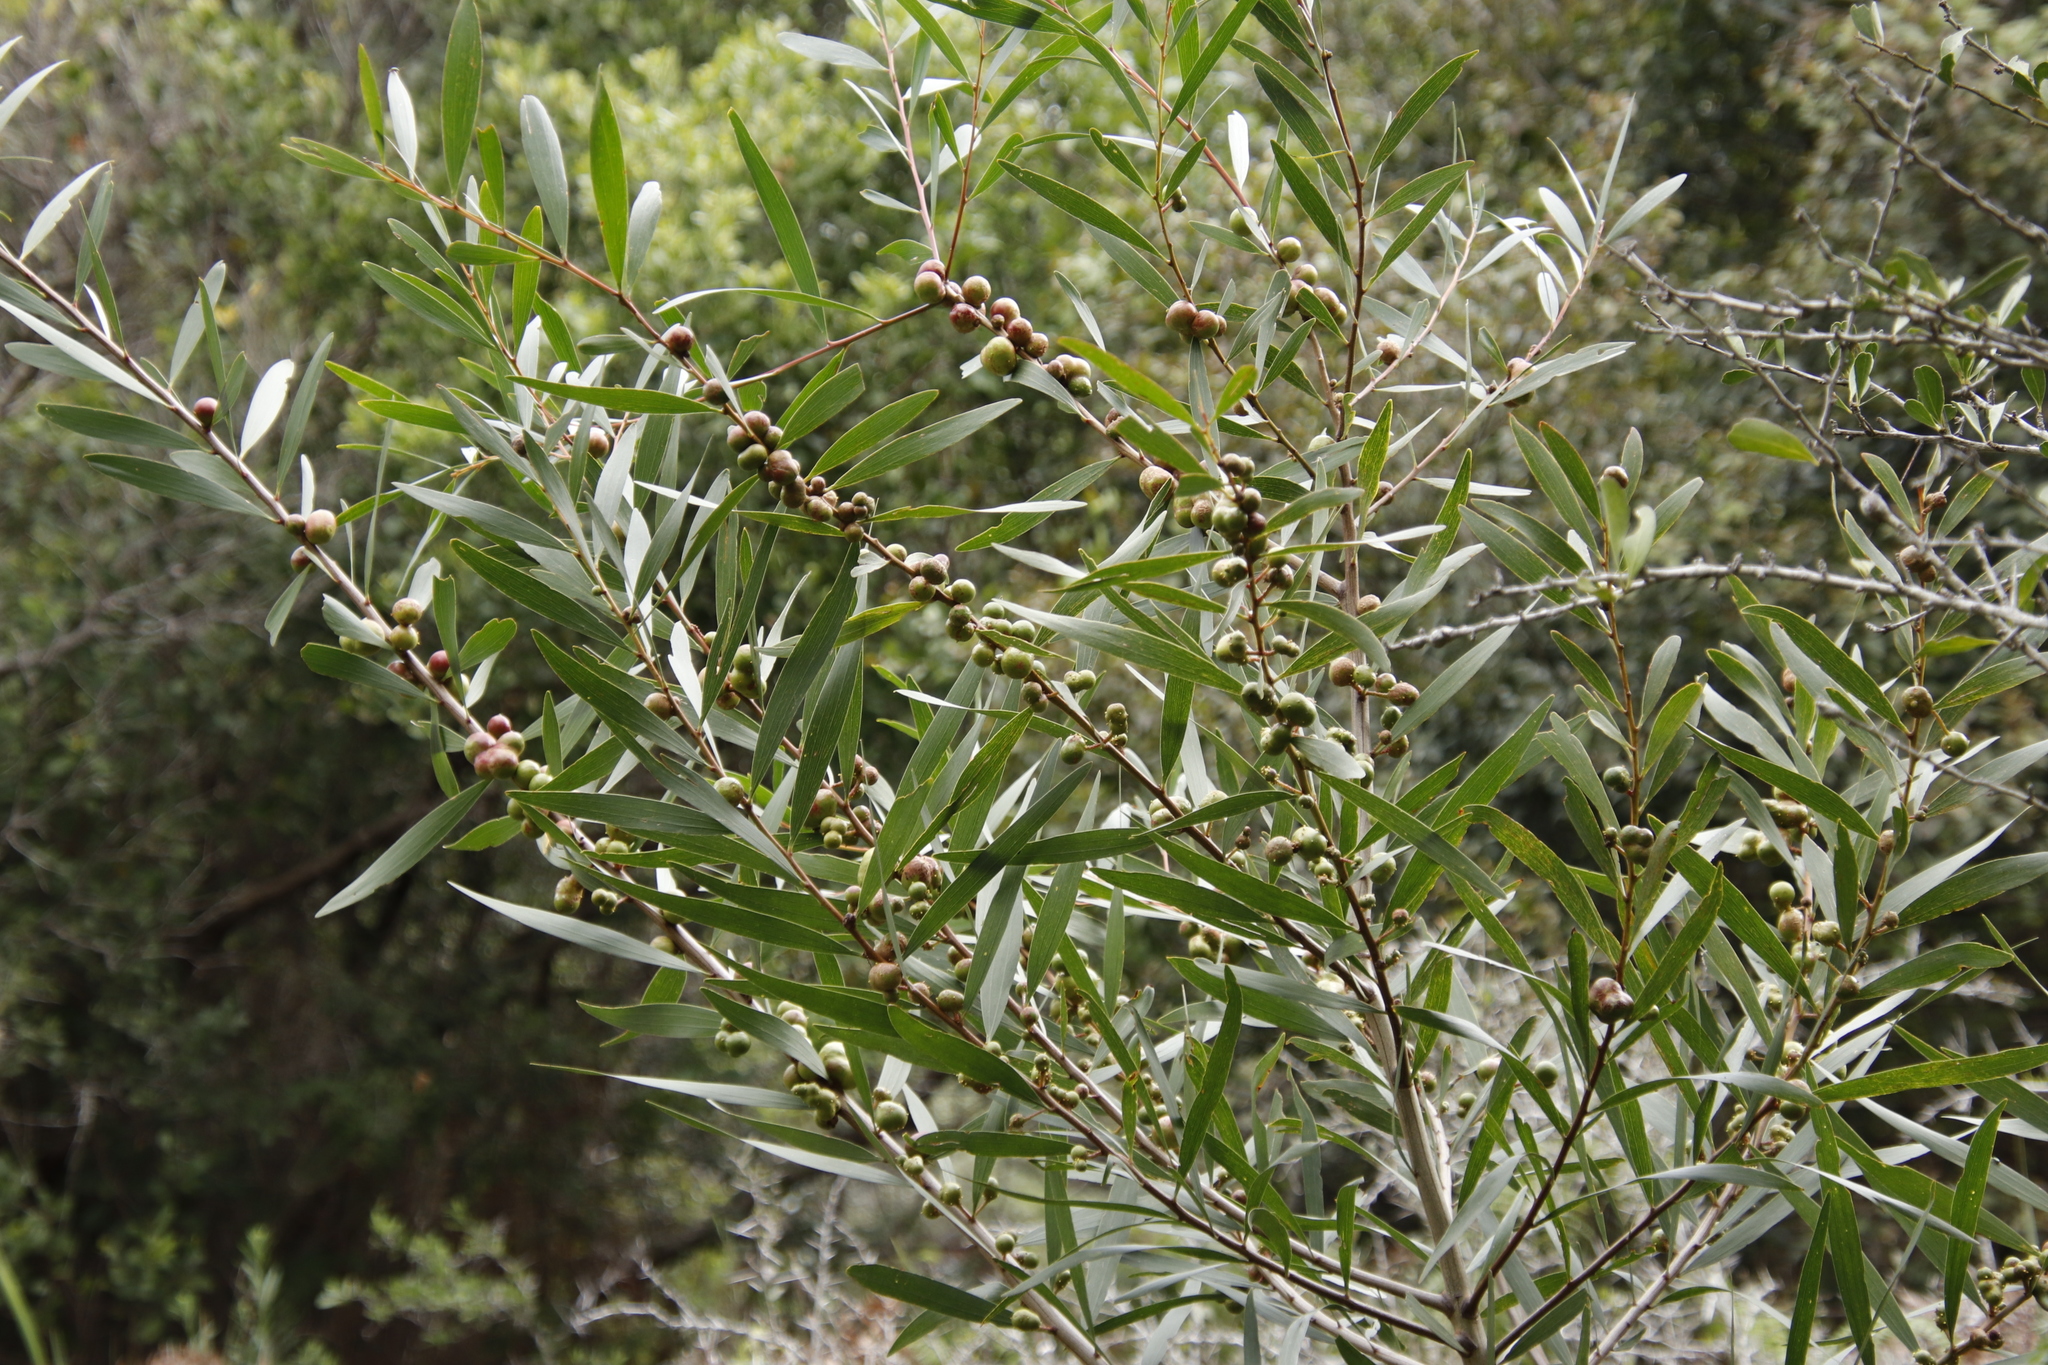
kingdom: Animalia
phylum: Arthropoda
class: Insecta
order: Hymenoptera
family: Pteromalidae
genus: Trichilogaster
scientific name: Trichilogaster acaciaelongifoliae
